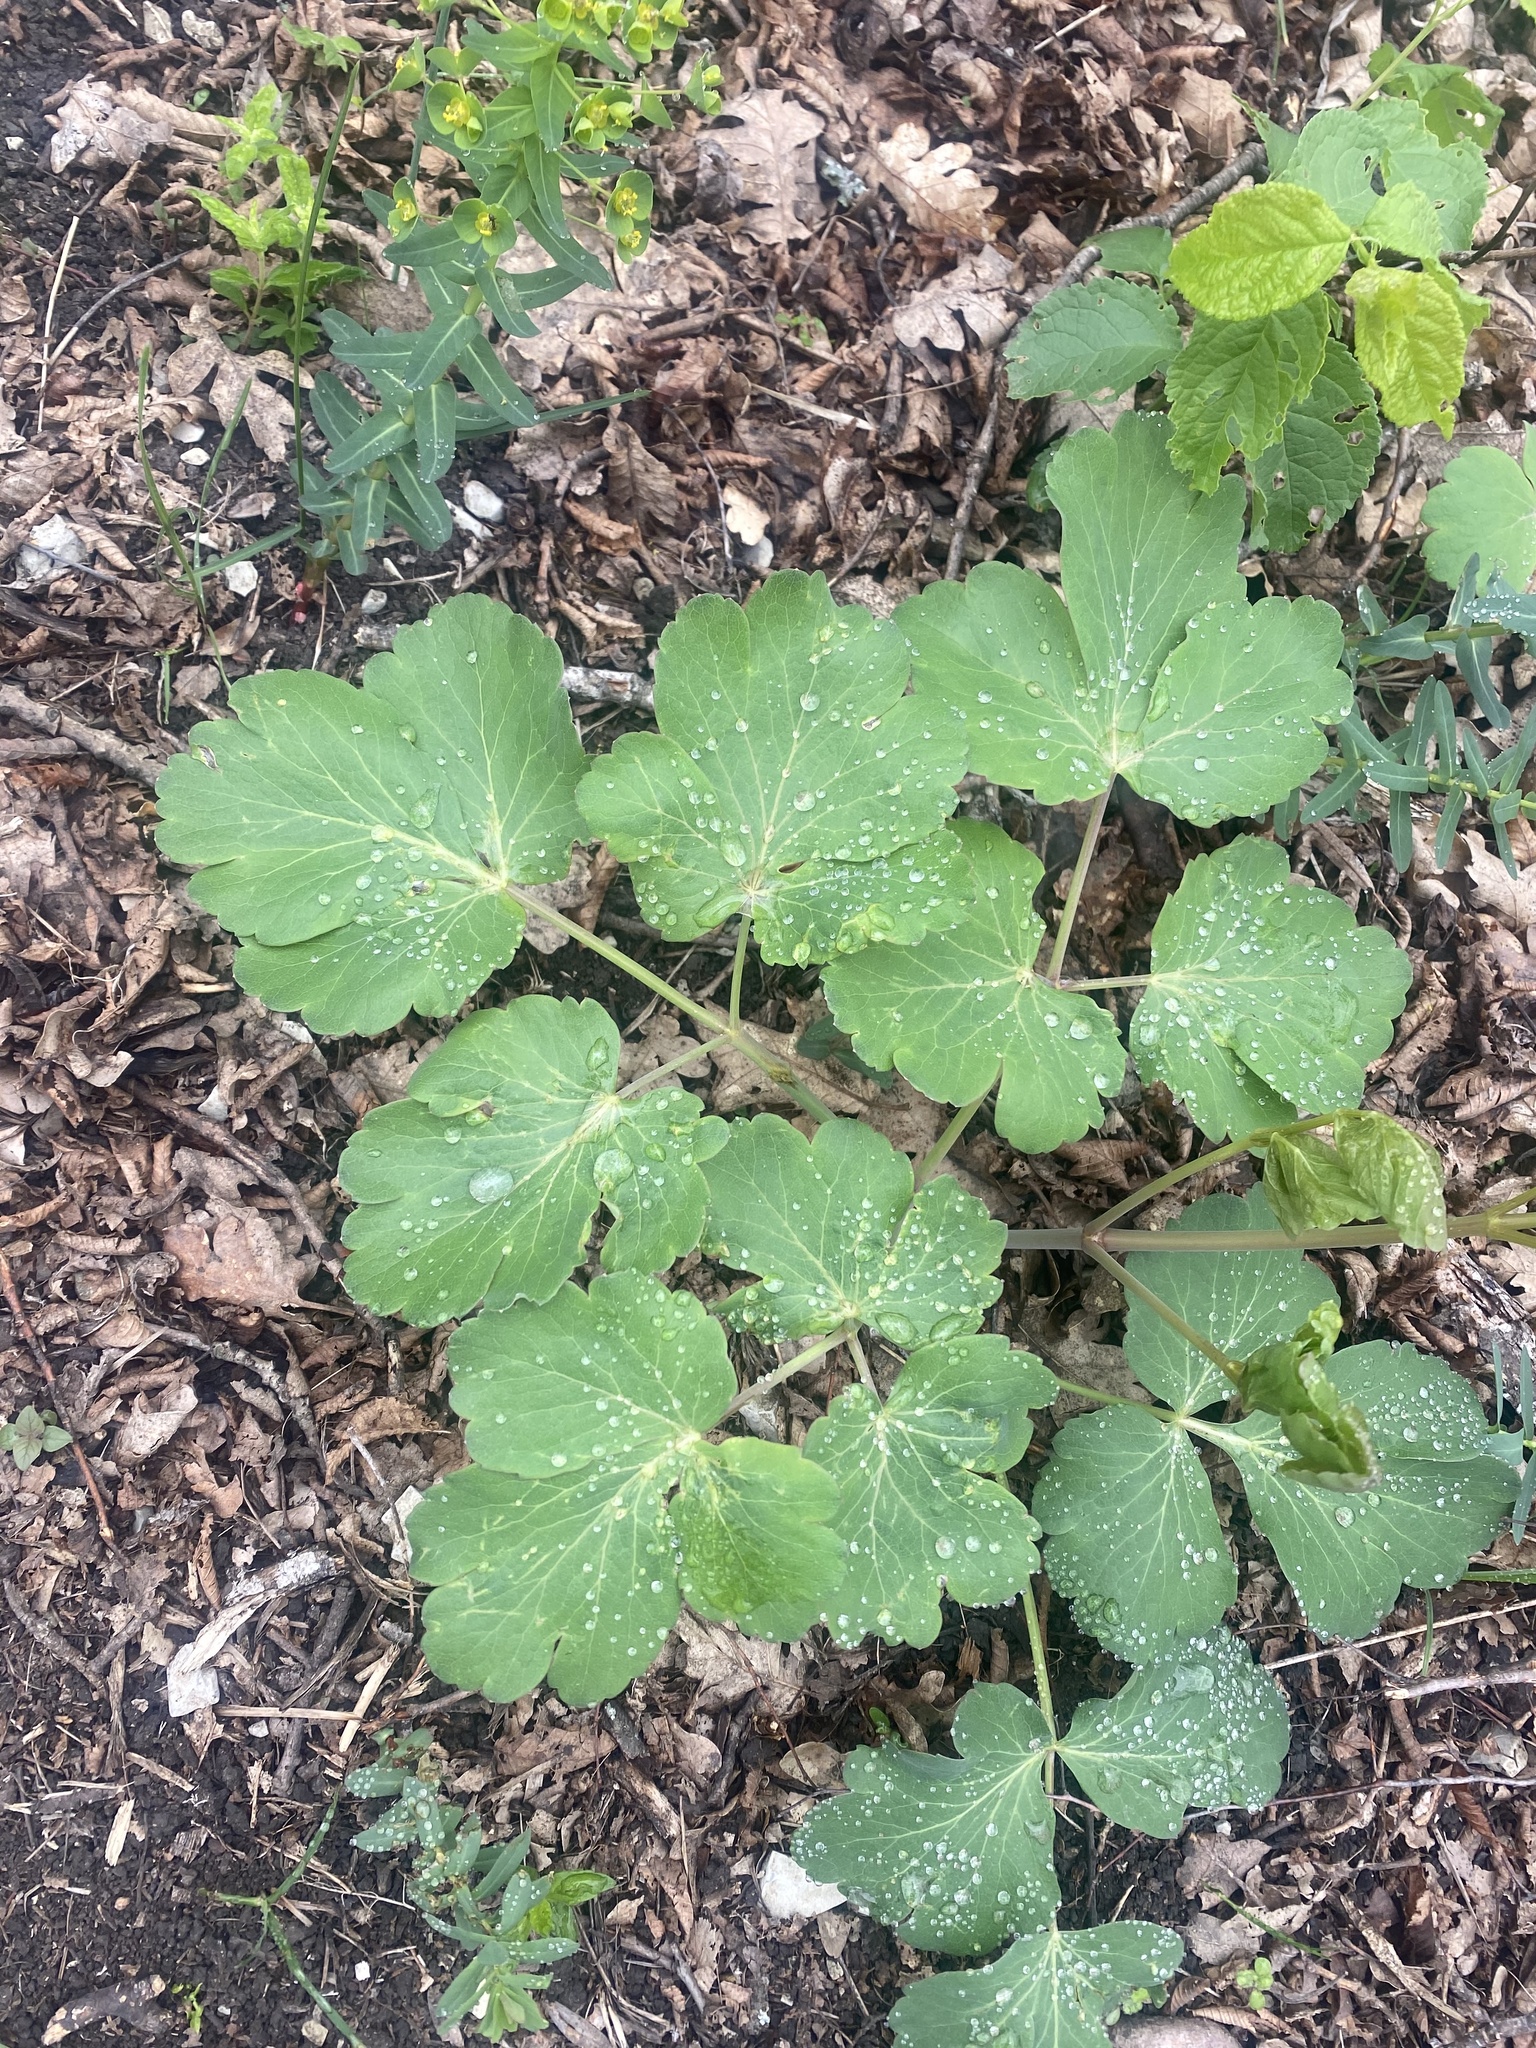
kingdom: Plantae
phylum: Tracheophyta
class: Magnoliopsida
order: Apiales
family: Apiaceae
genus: Laser
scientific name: Laser trilobum
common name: Laser
